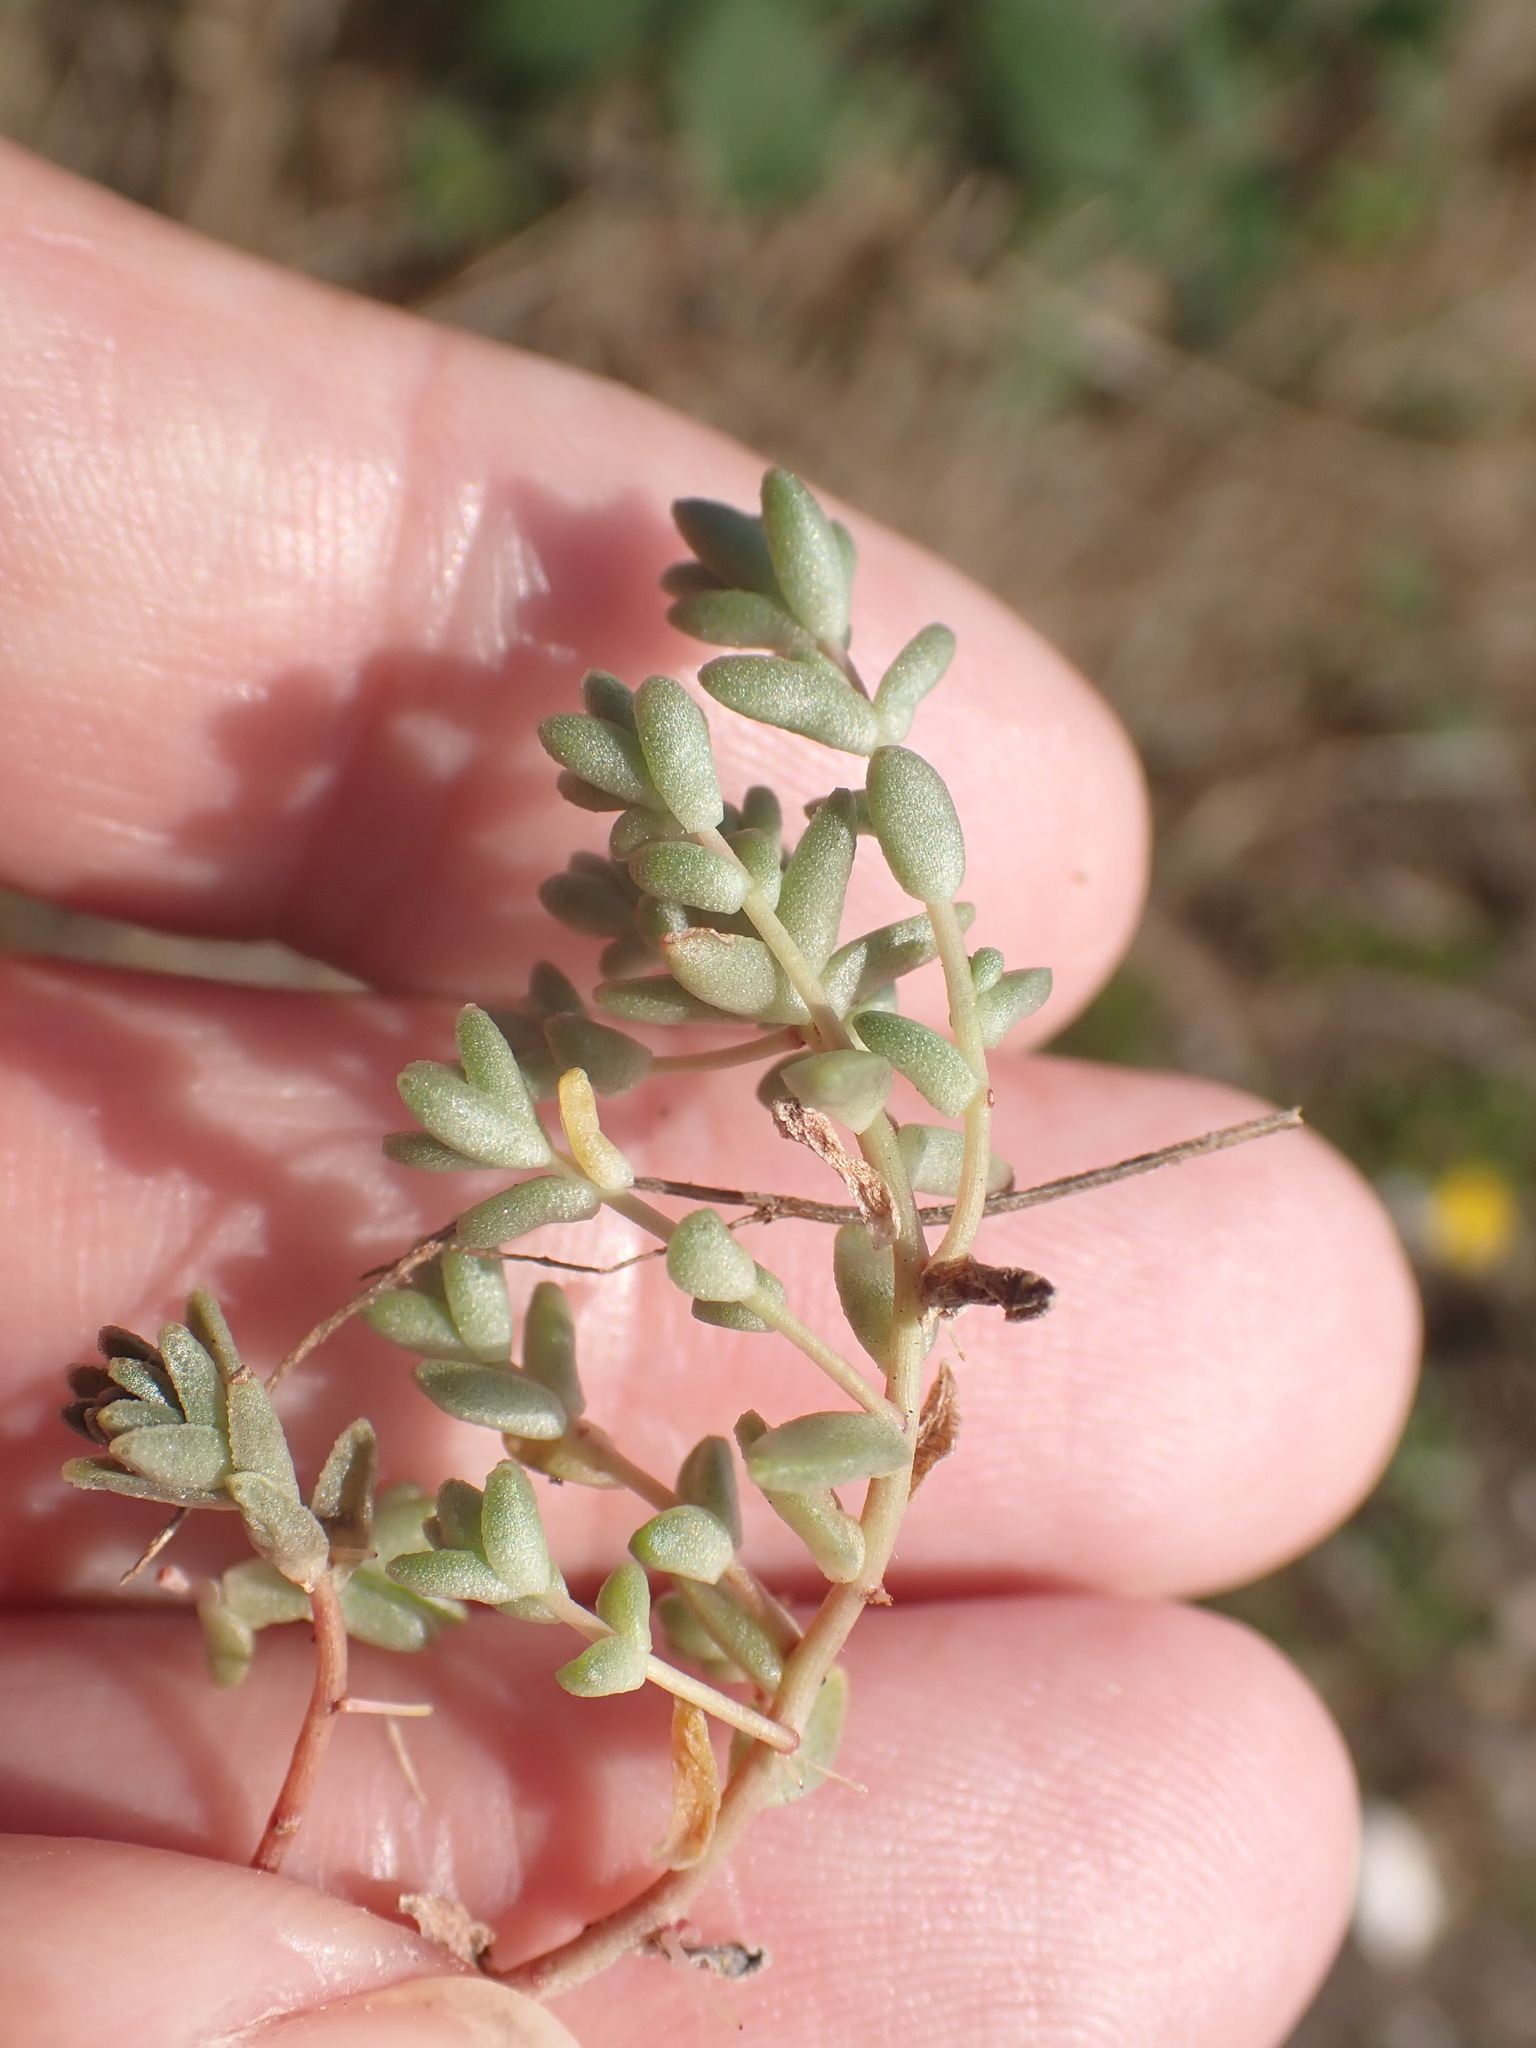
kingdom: Plantae
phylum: Tracheophyta
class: Magnoliopsida
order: Saxifragales
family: Crassulaceae
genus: Sedum
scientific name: Sedum anglicum
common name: English stonecrop
